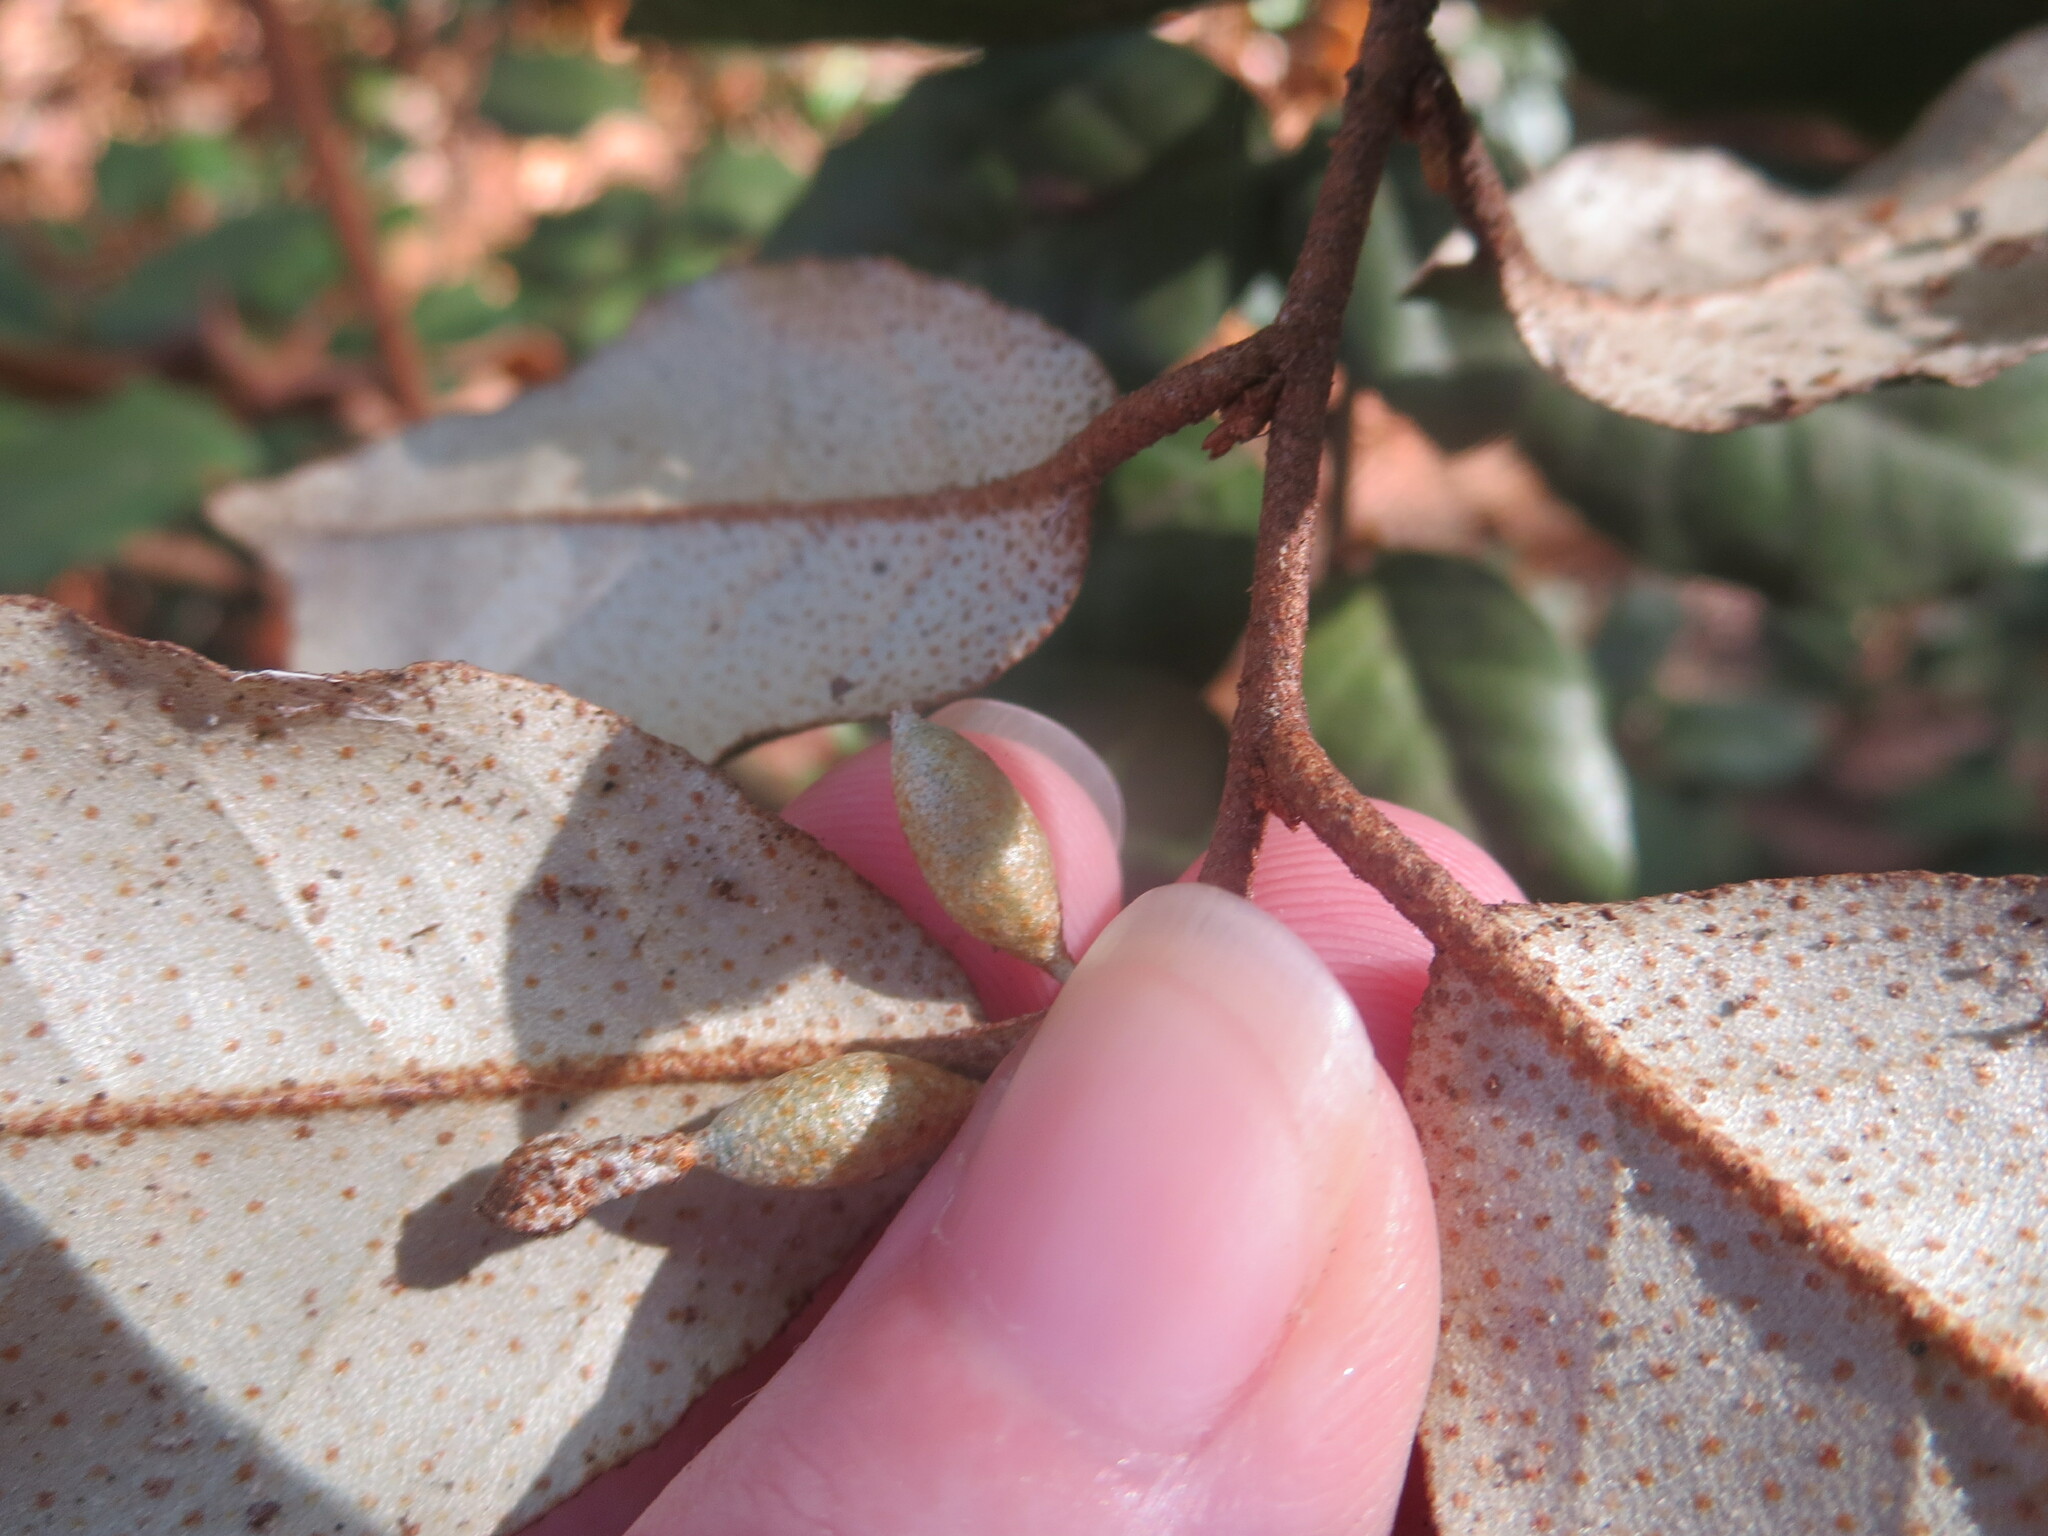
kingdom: Plantae
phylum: Tracheophyta
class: Magnoliopsida
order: Rosales
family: Elaeagnaceae
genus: Elaeagnus
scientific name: Elaeagnus pungens
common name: Spiny oleaster
